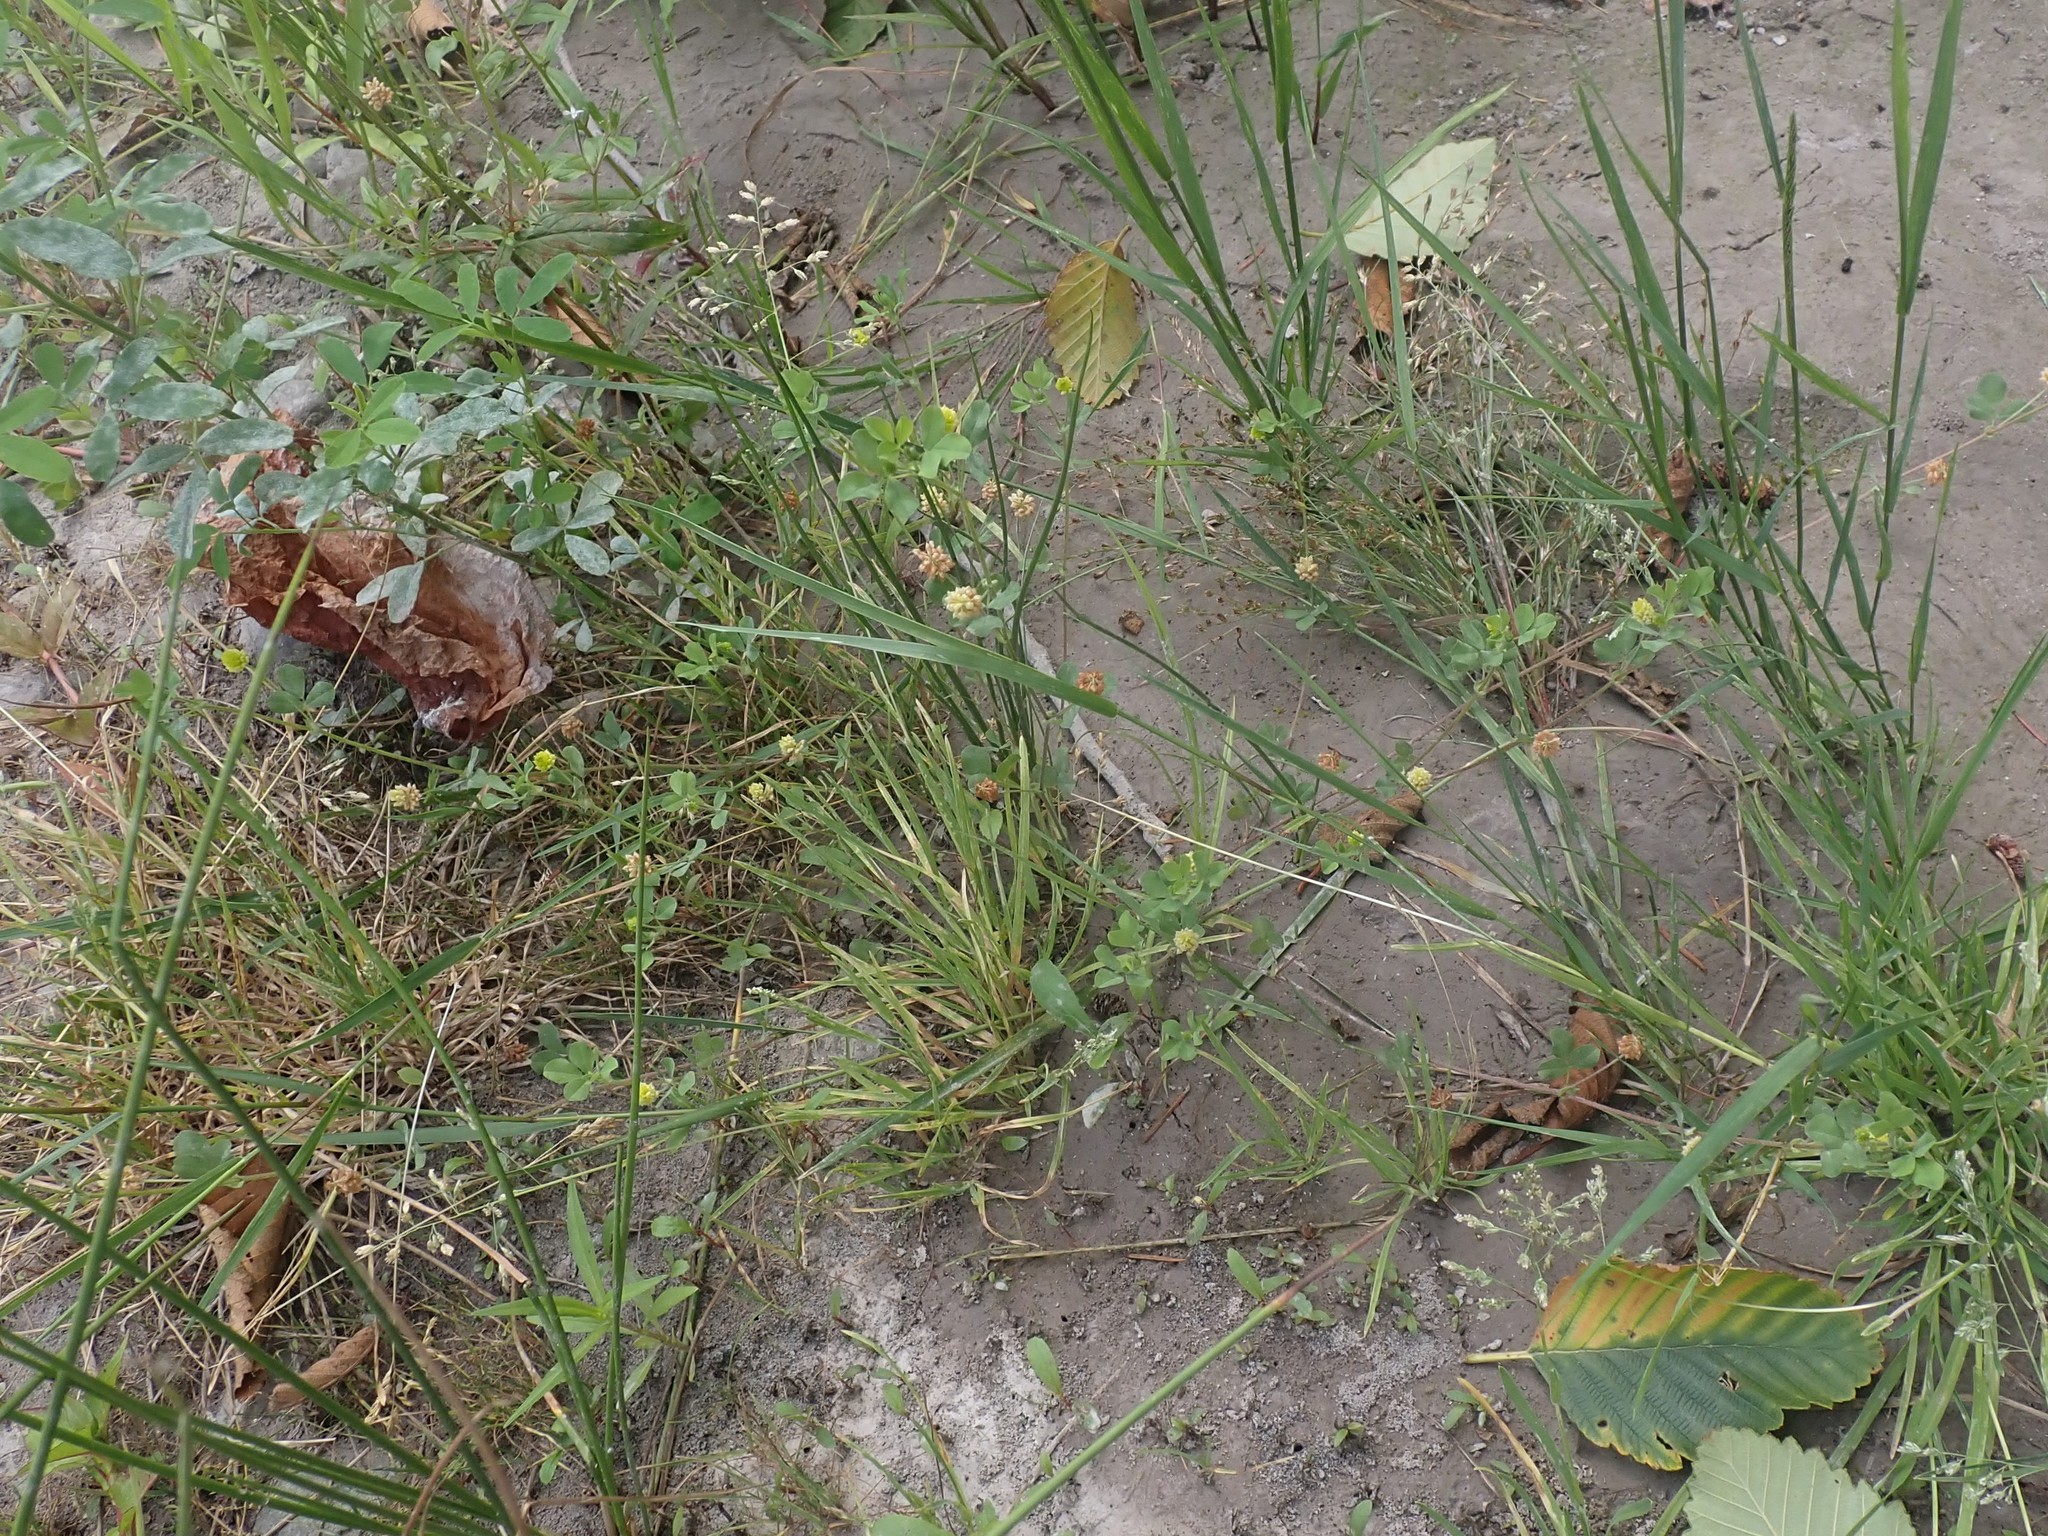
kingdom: Plantae
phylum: Tracheophyta
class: Magnoliopsida
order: Fabales
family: Fabaceae
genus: Trifolium
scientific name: Trifolium campestre
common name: Field clover
